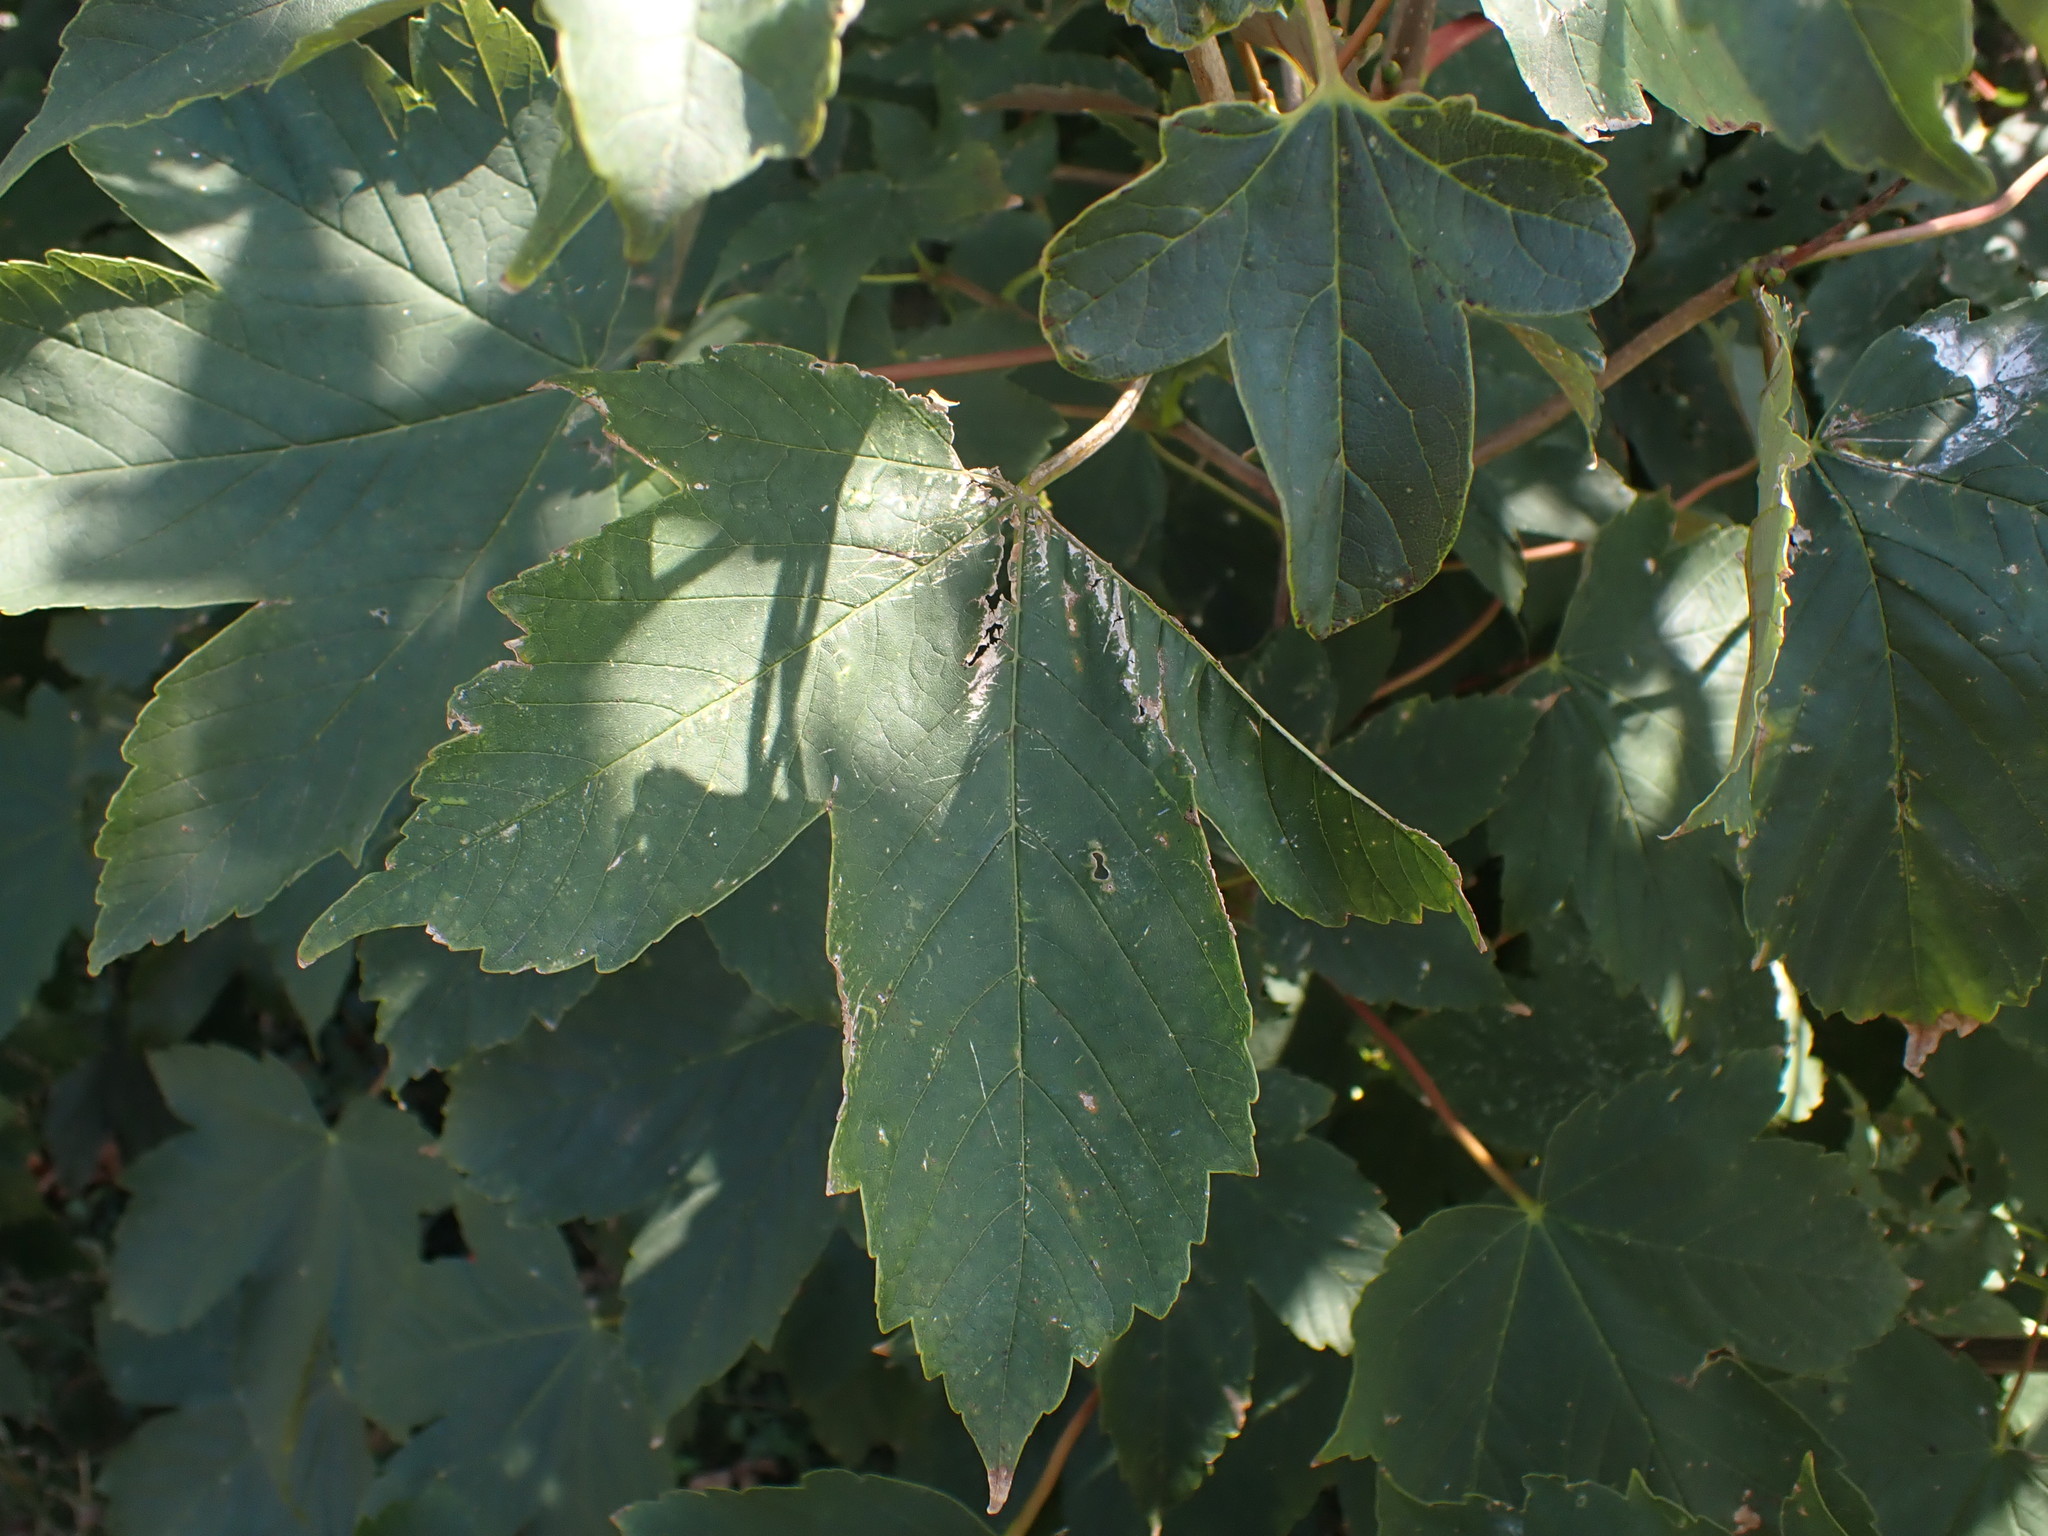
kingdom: Plantae
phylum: Tracheophyta
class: Magnoliopsida
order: Sapindales
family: Sapindaceae
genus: Acer
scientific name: Acer pseudoplatanus
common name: Sycamore
